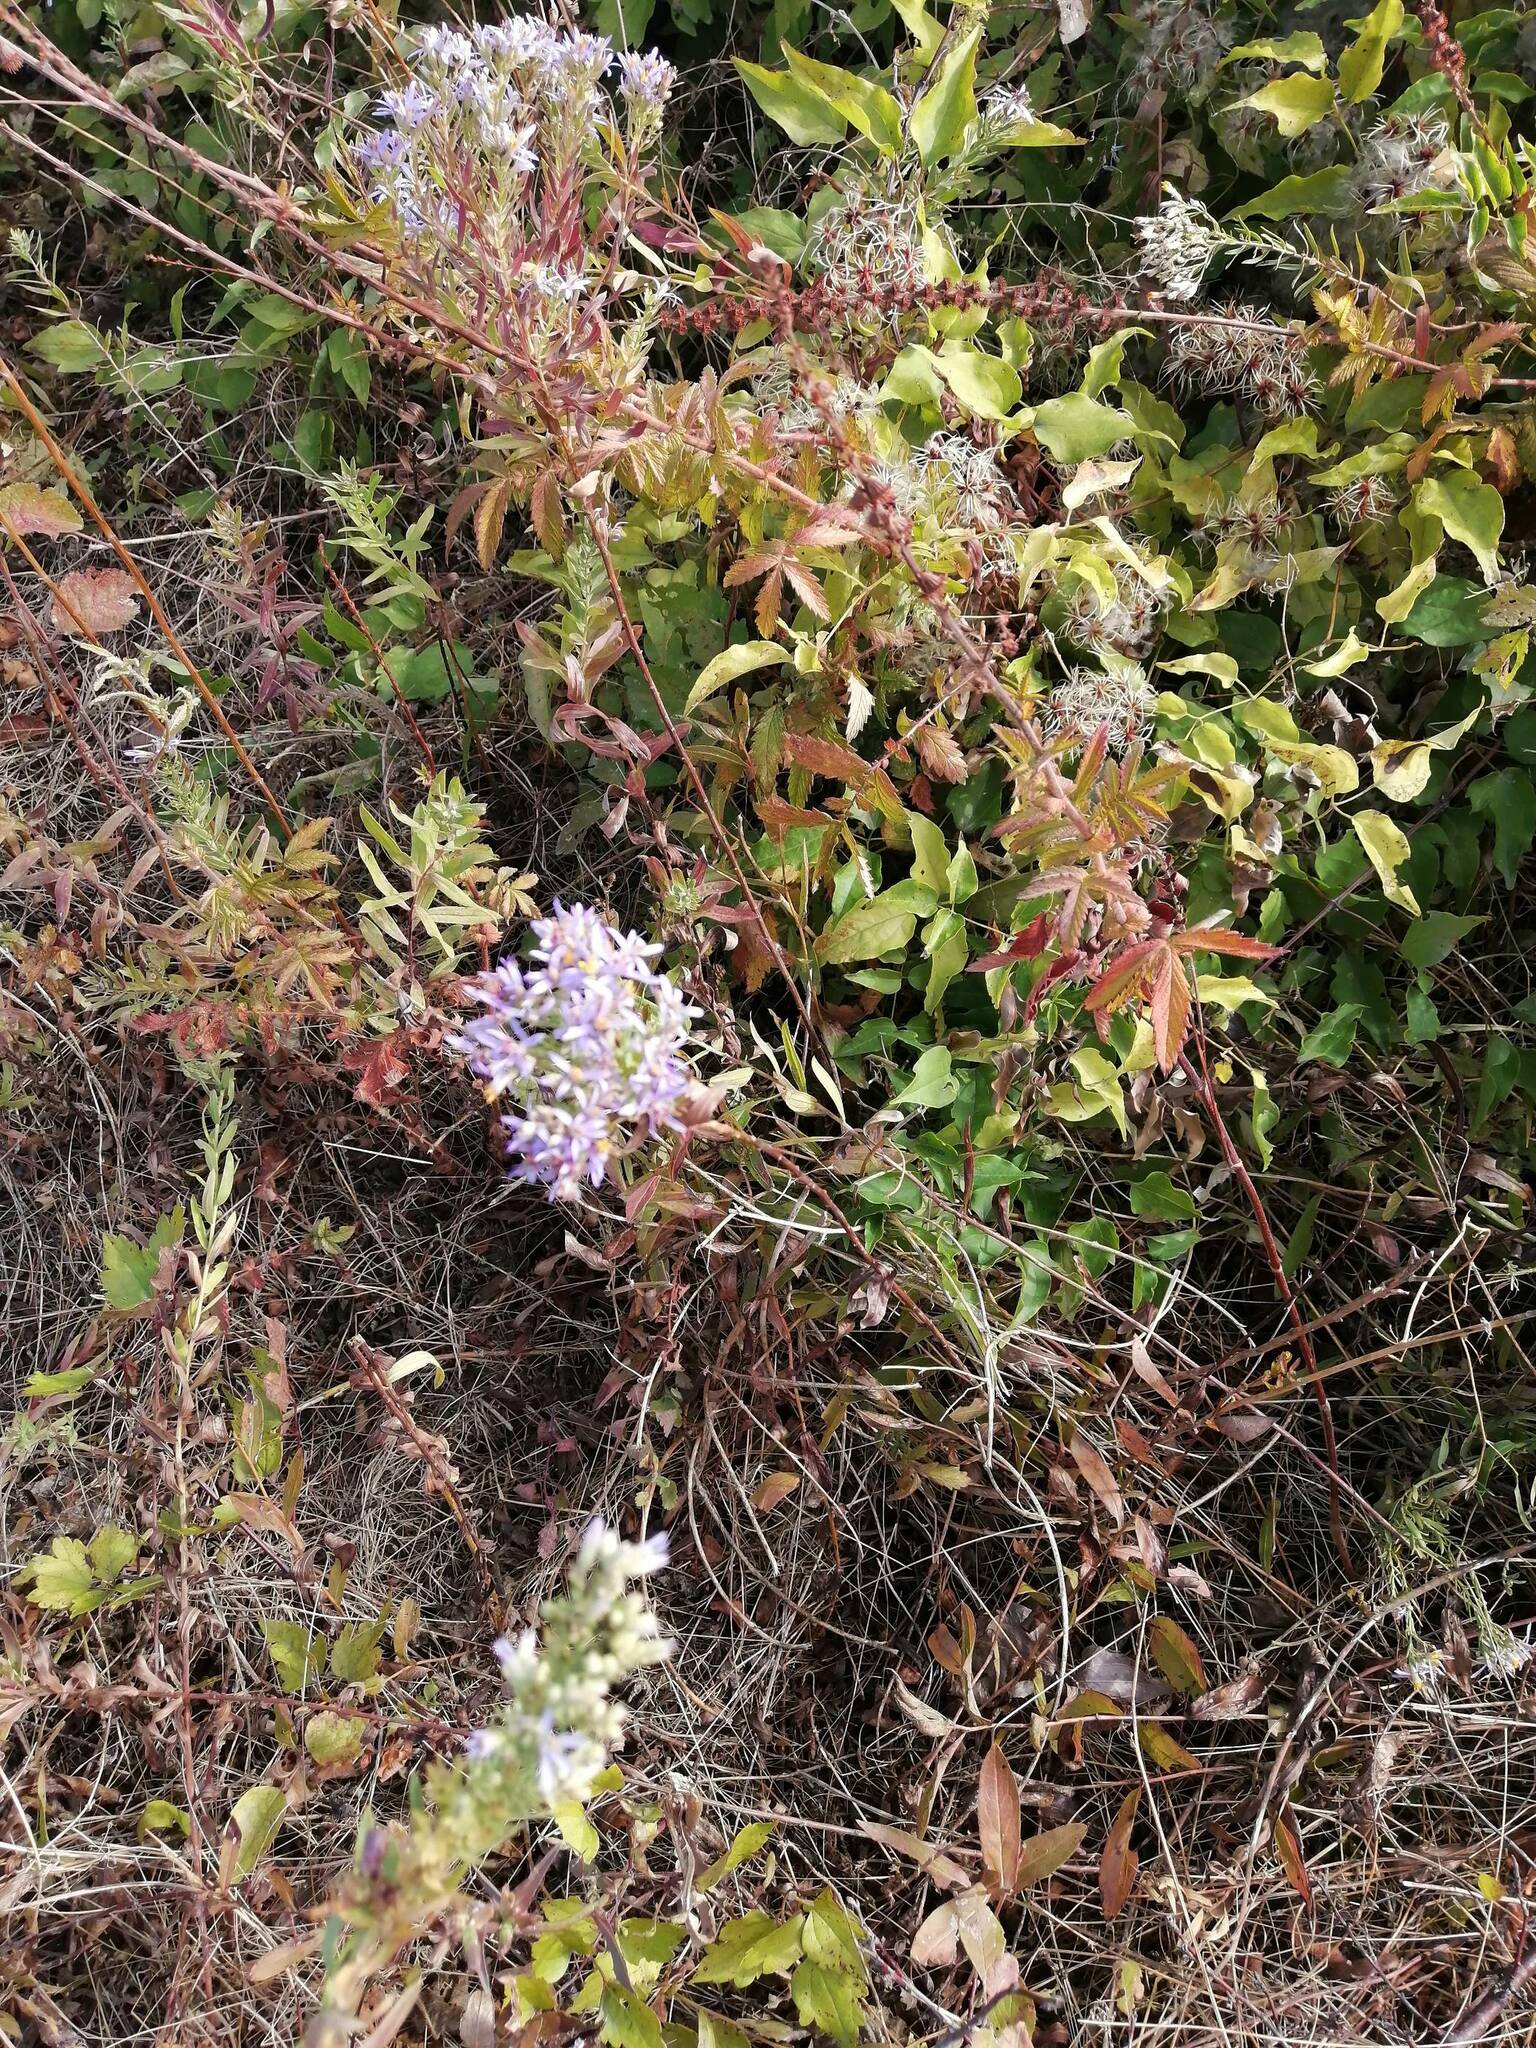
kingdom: Plantae
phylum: Tracheophyta
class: Magnoliopsida
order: Asterales
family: Asteraceae
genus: Galatella
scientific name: Galatella sedifolia
